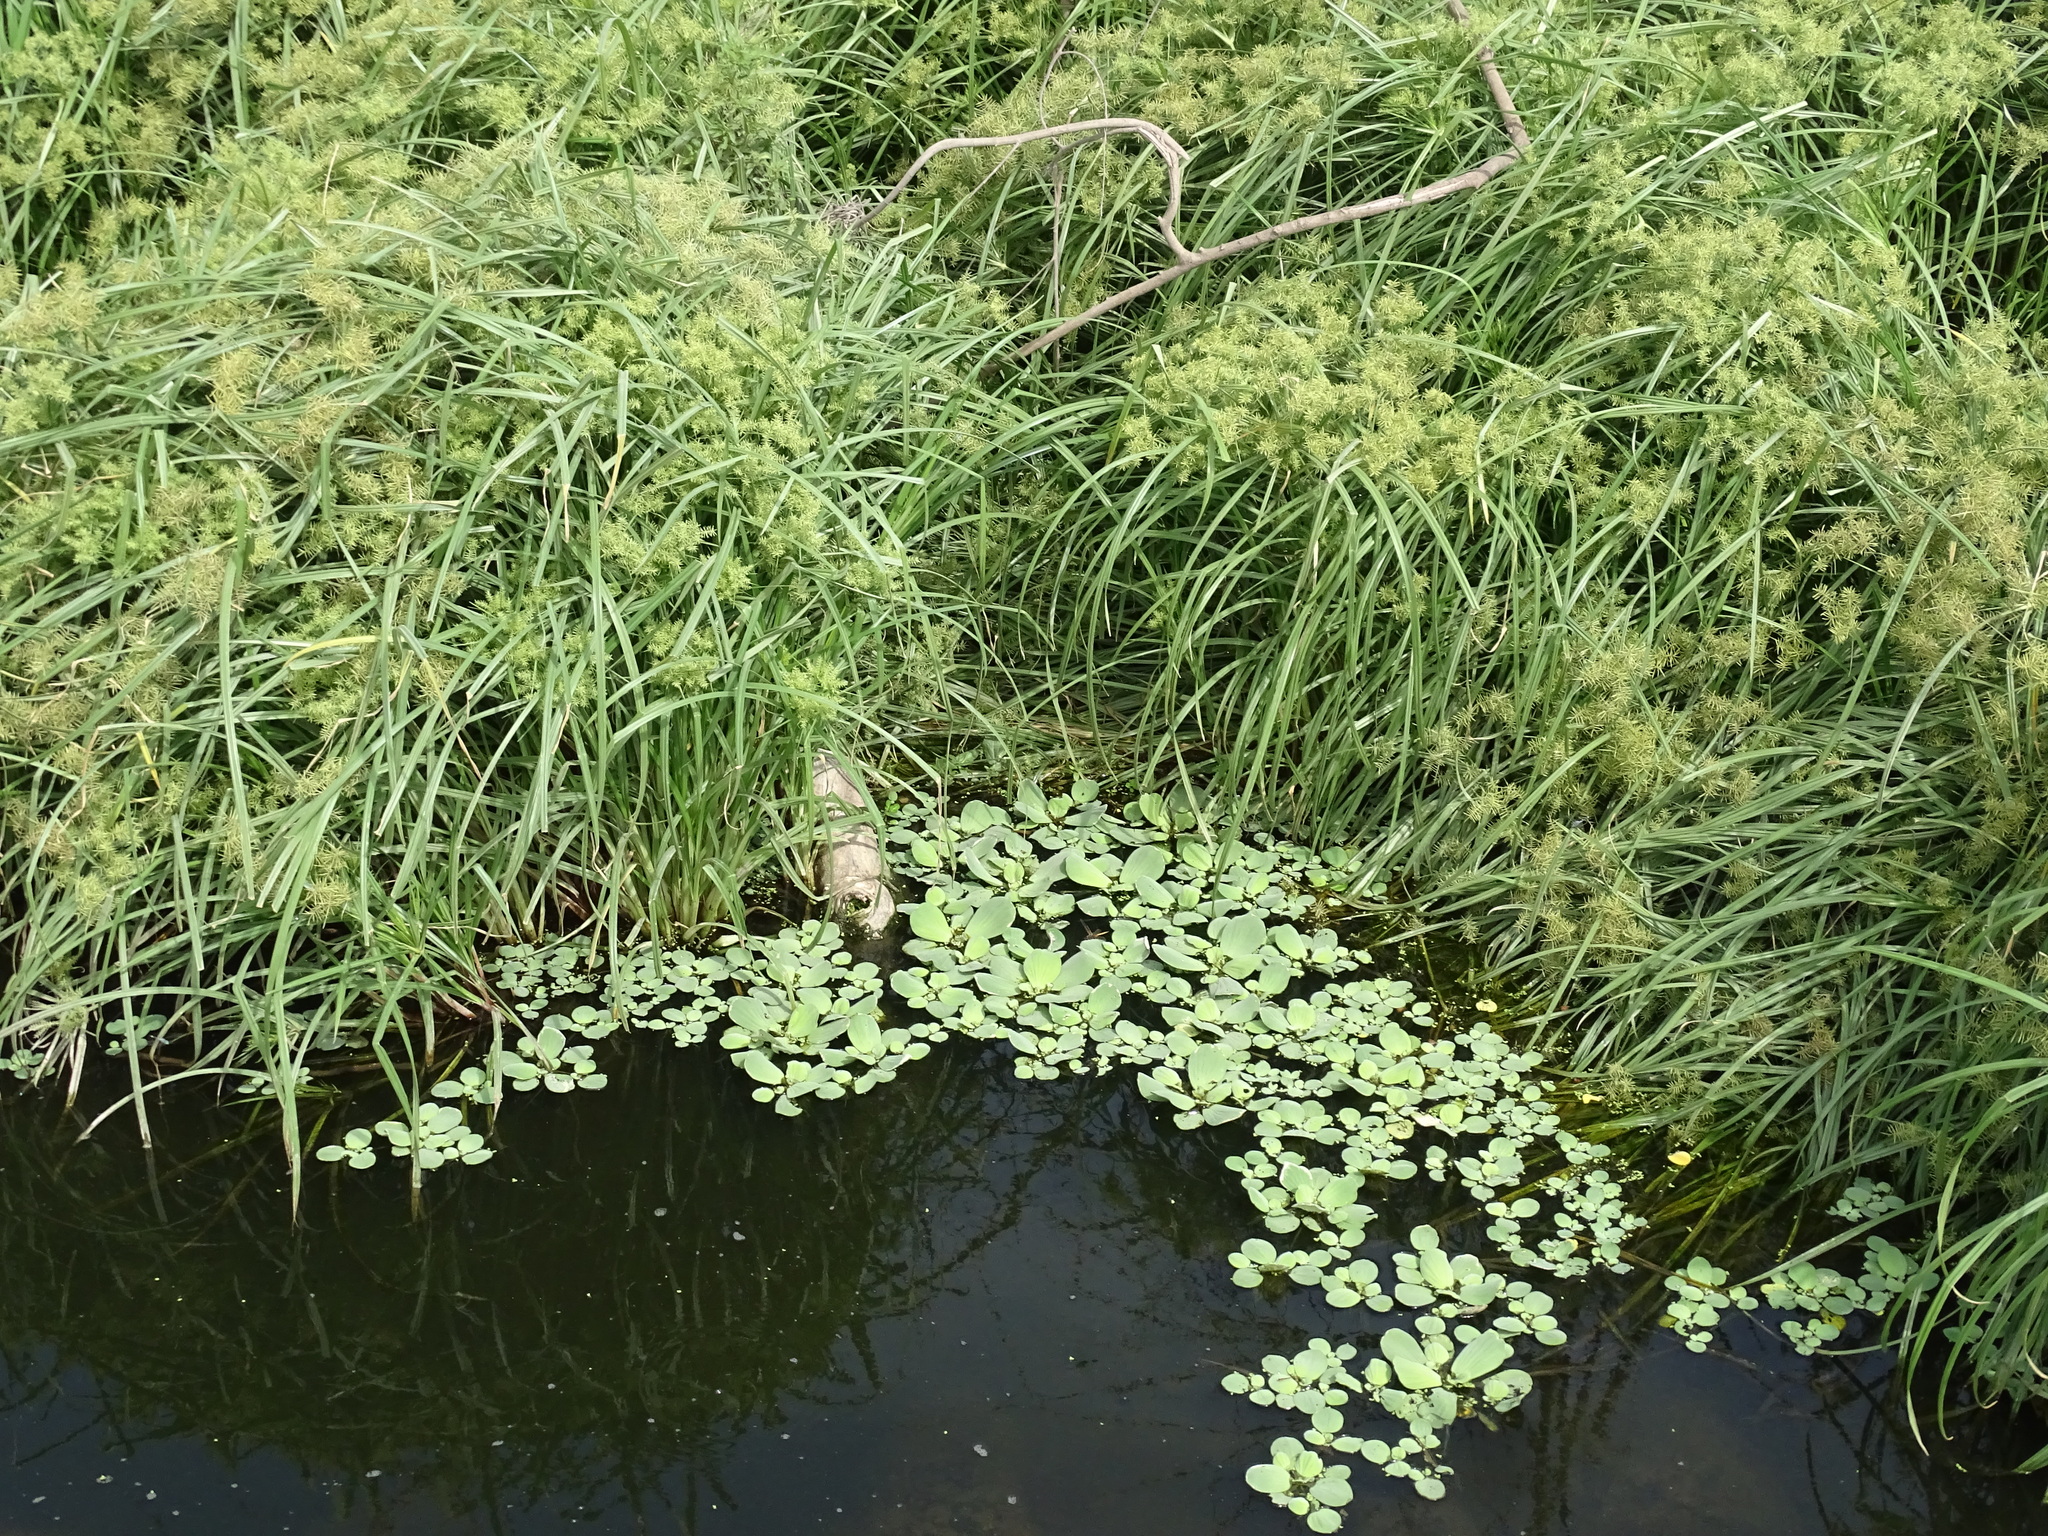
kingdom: Plantae
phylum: Tracheophyta
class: Liliopsida
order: Alismatales
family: Araceae
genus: Pistia
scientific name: Pistia stratiotes
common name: Water lettuce
